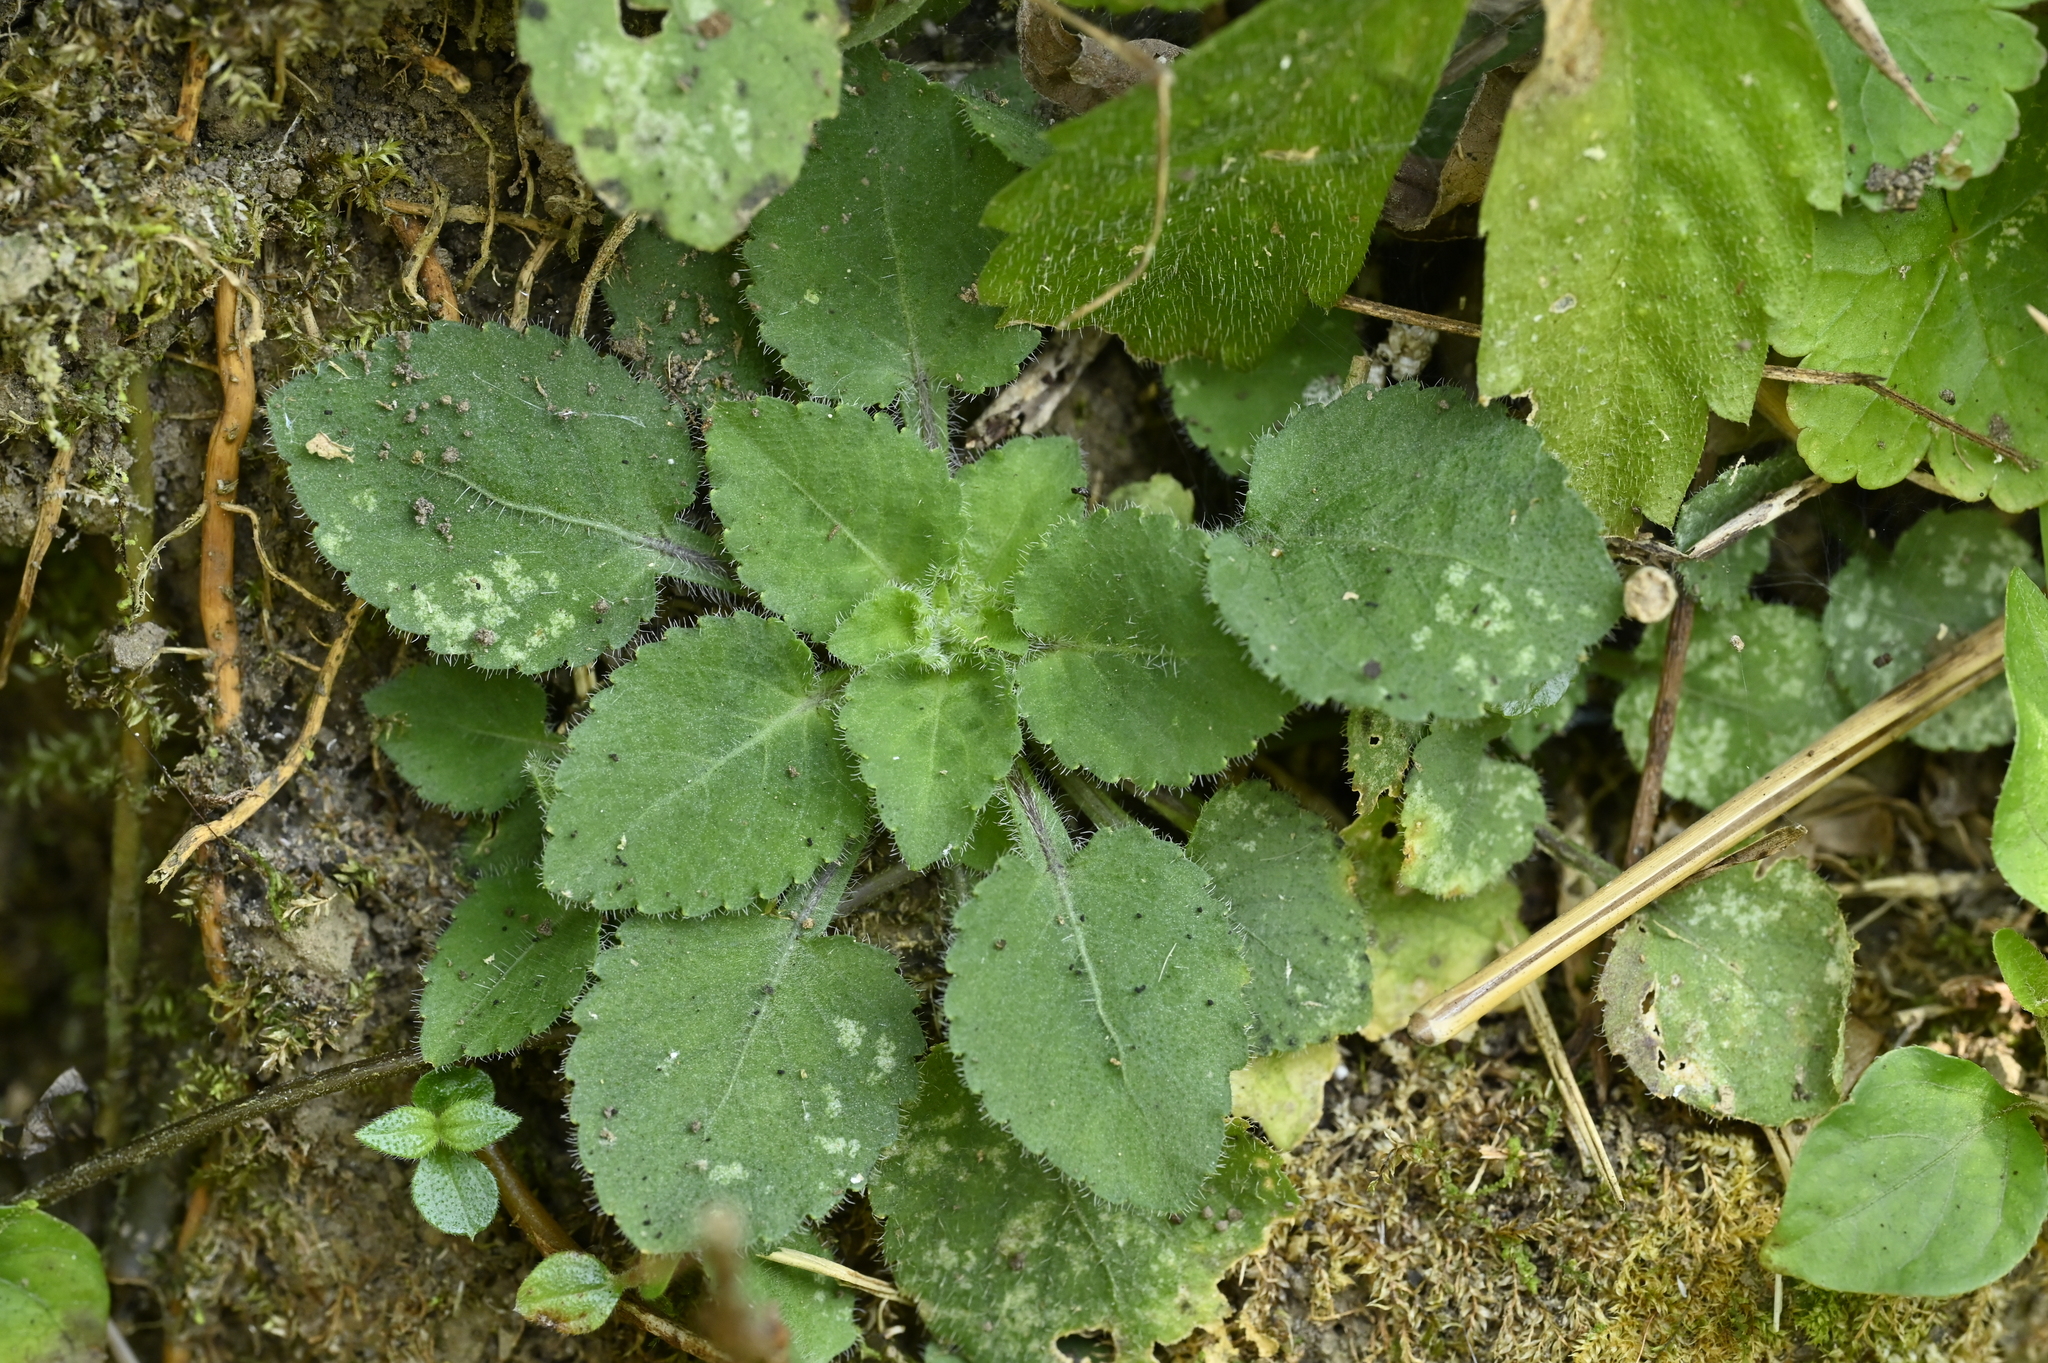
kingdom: Plantae
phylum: Tracheophyta
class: Magnoliopsida
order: Malpighiales
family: Violaceae
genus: Viola
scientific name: Viola diffusa
